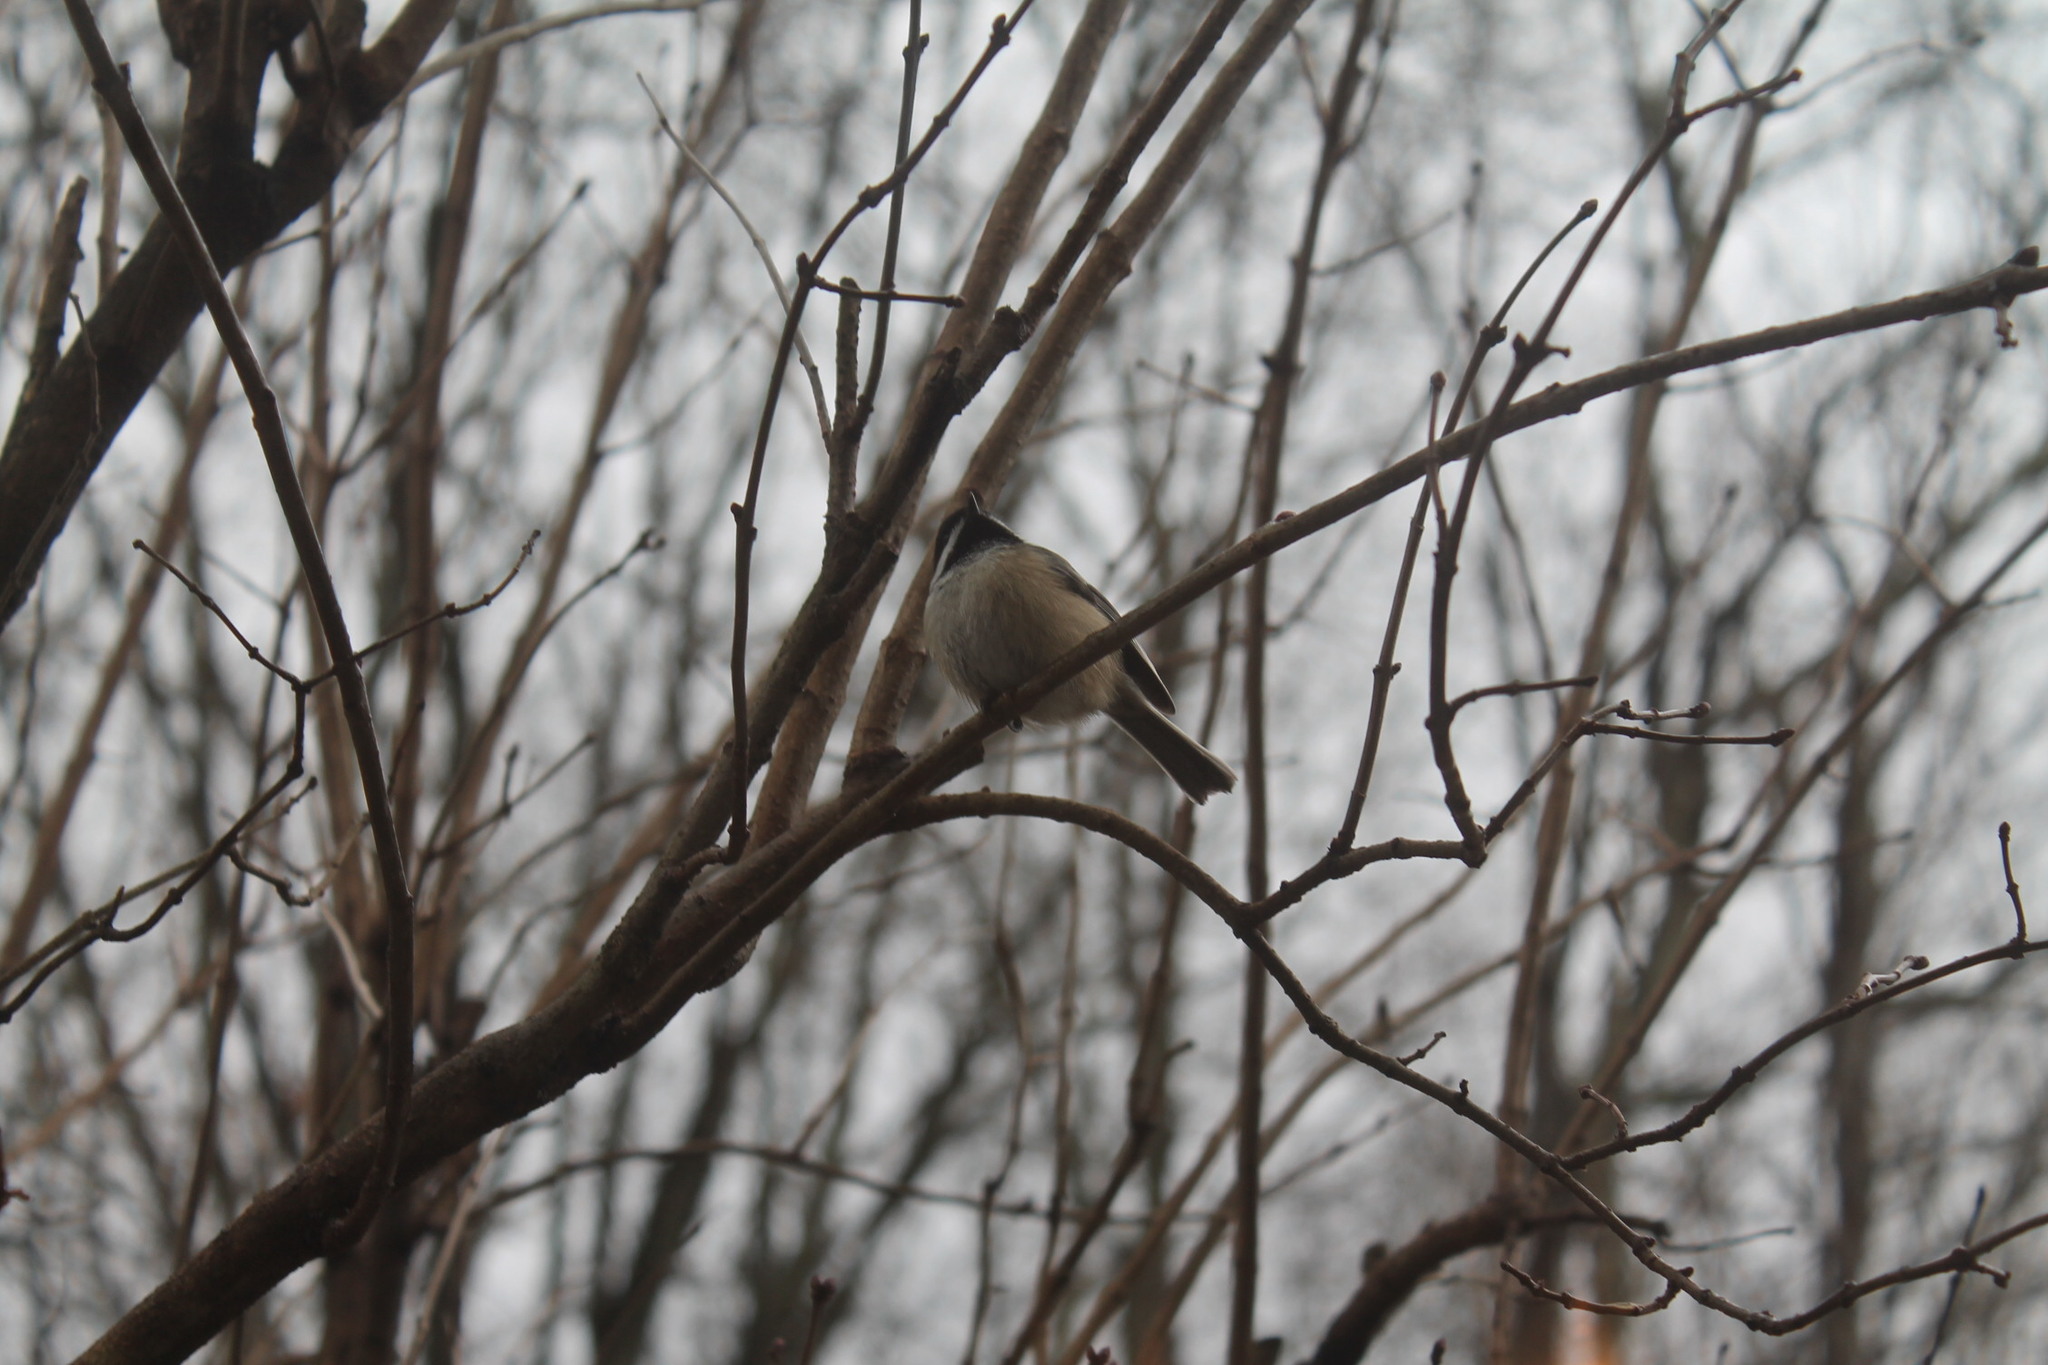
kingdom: Animalia
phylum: Chordata
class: Aves
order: Passeriformes
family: Paridae
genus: Poecile
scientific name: Poecile atricapillus
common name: Black-capped chickadee
